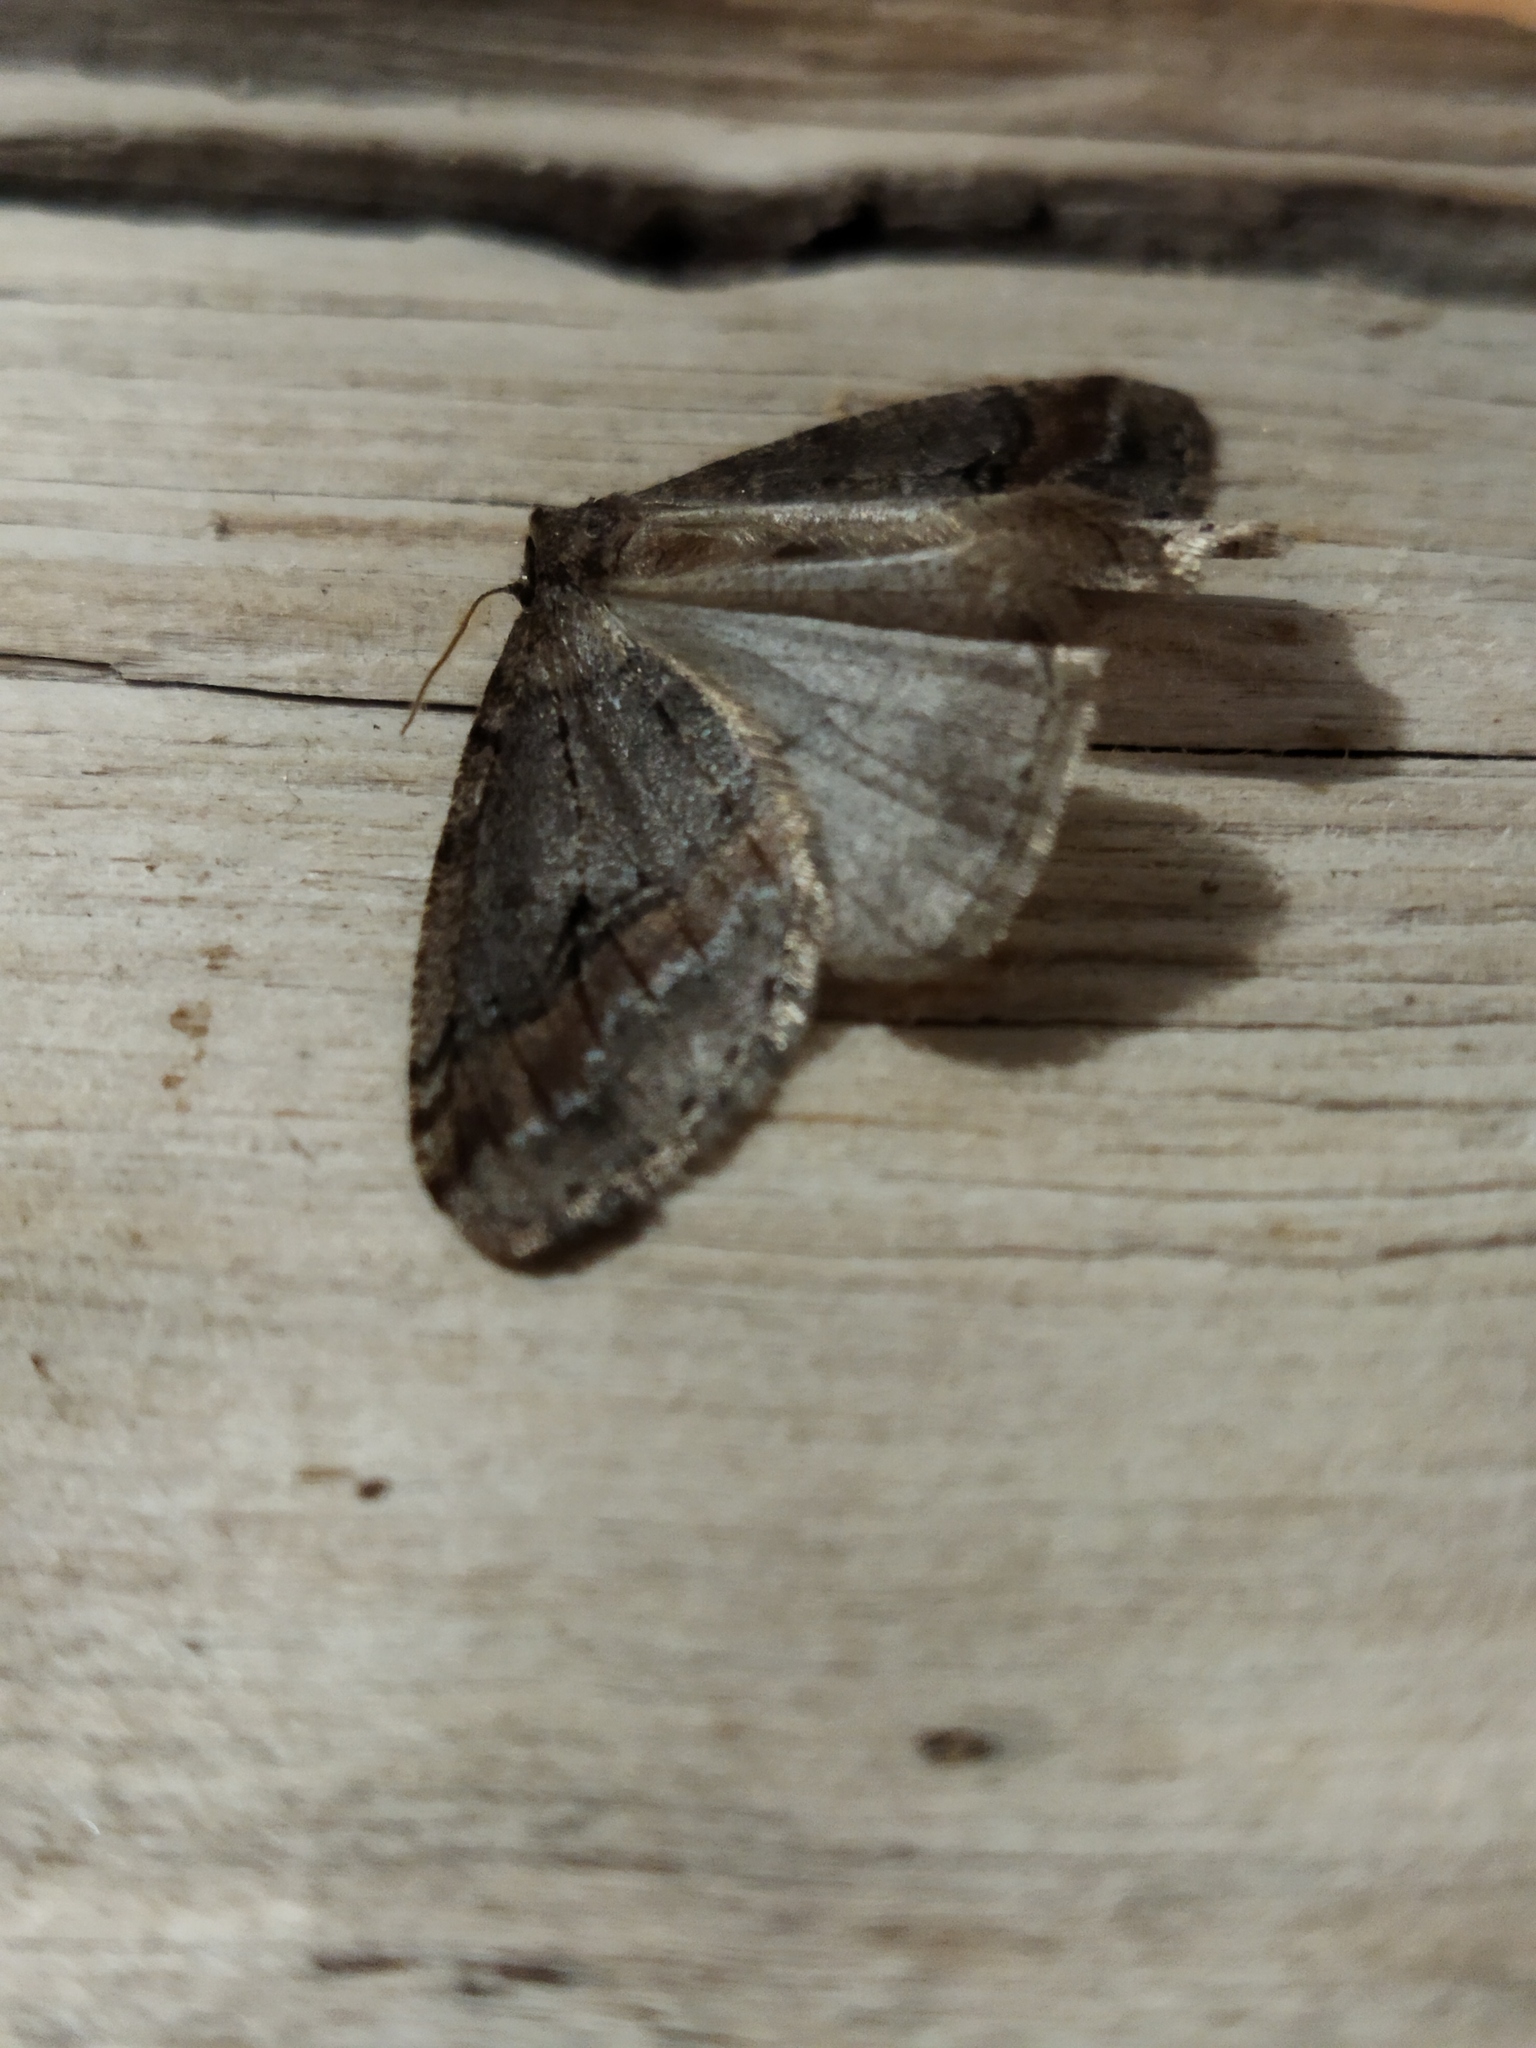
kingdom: Animalia
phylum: Arthropoda
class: Insecta
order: Lepidoptera
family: Geometridae
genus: Erannis
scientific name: Erannis declinans
